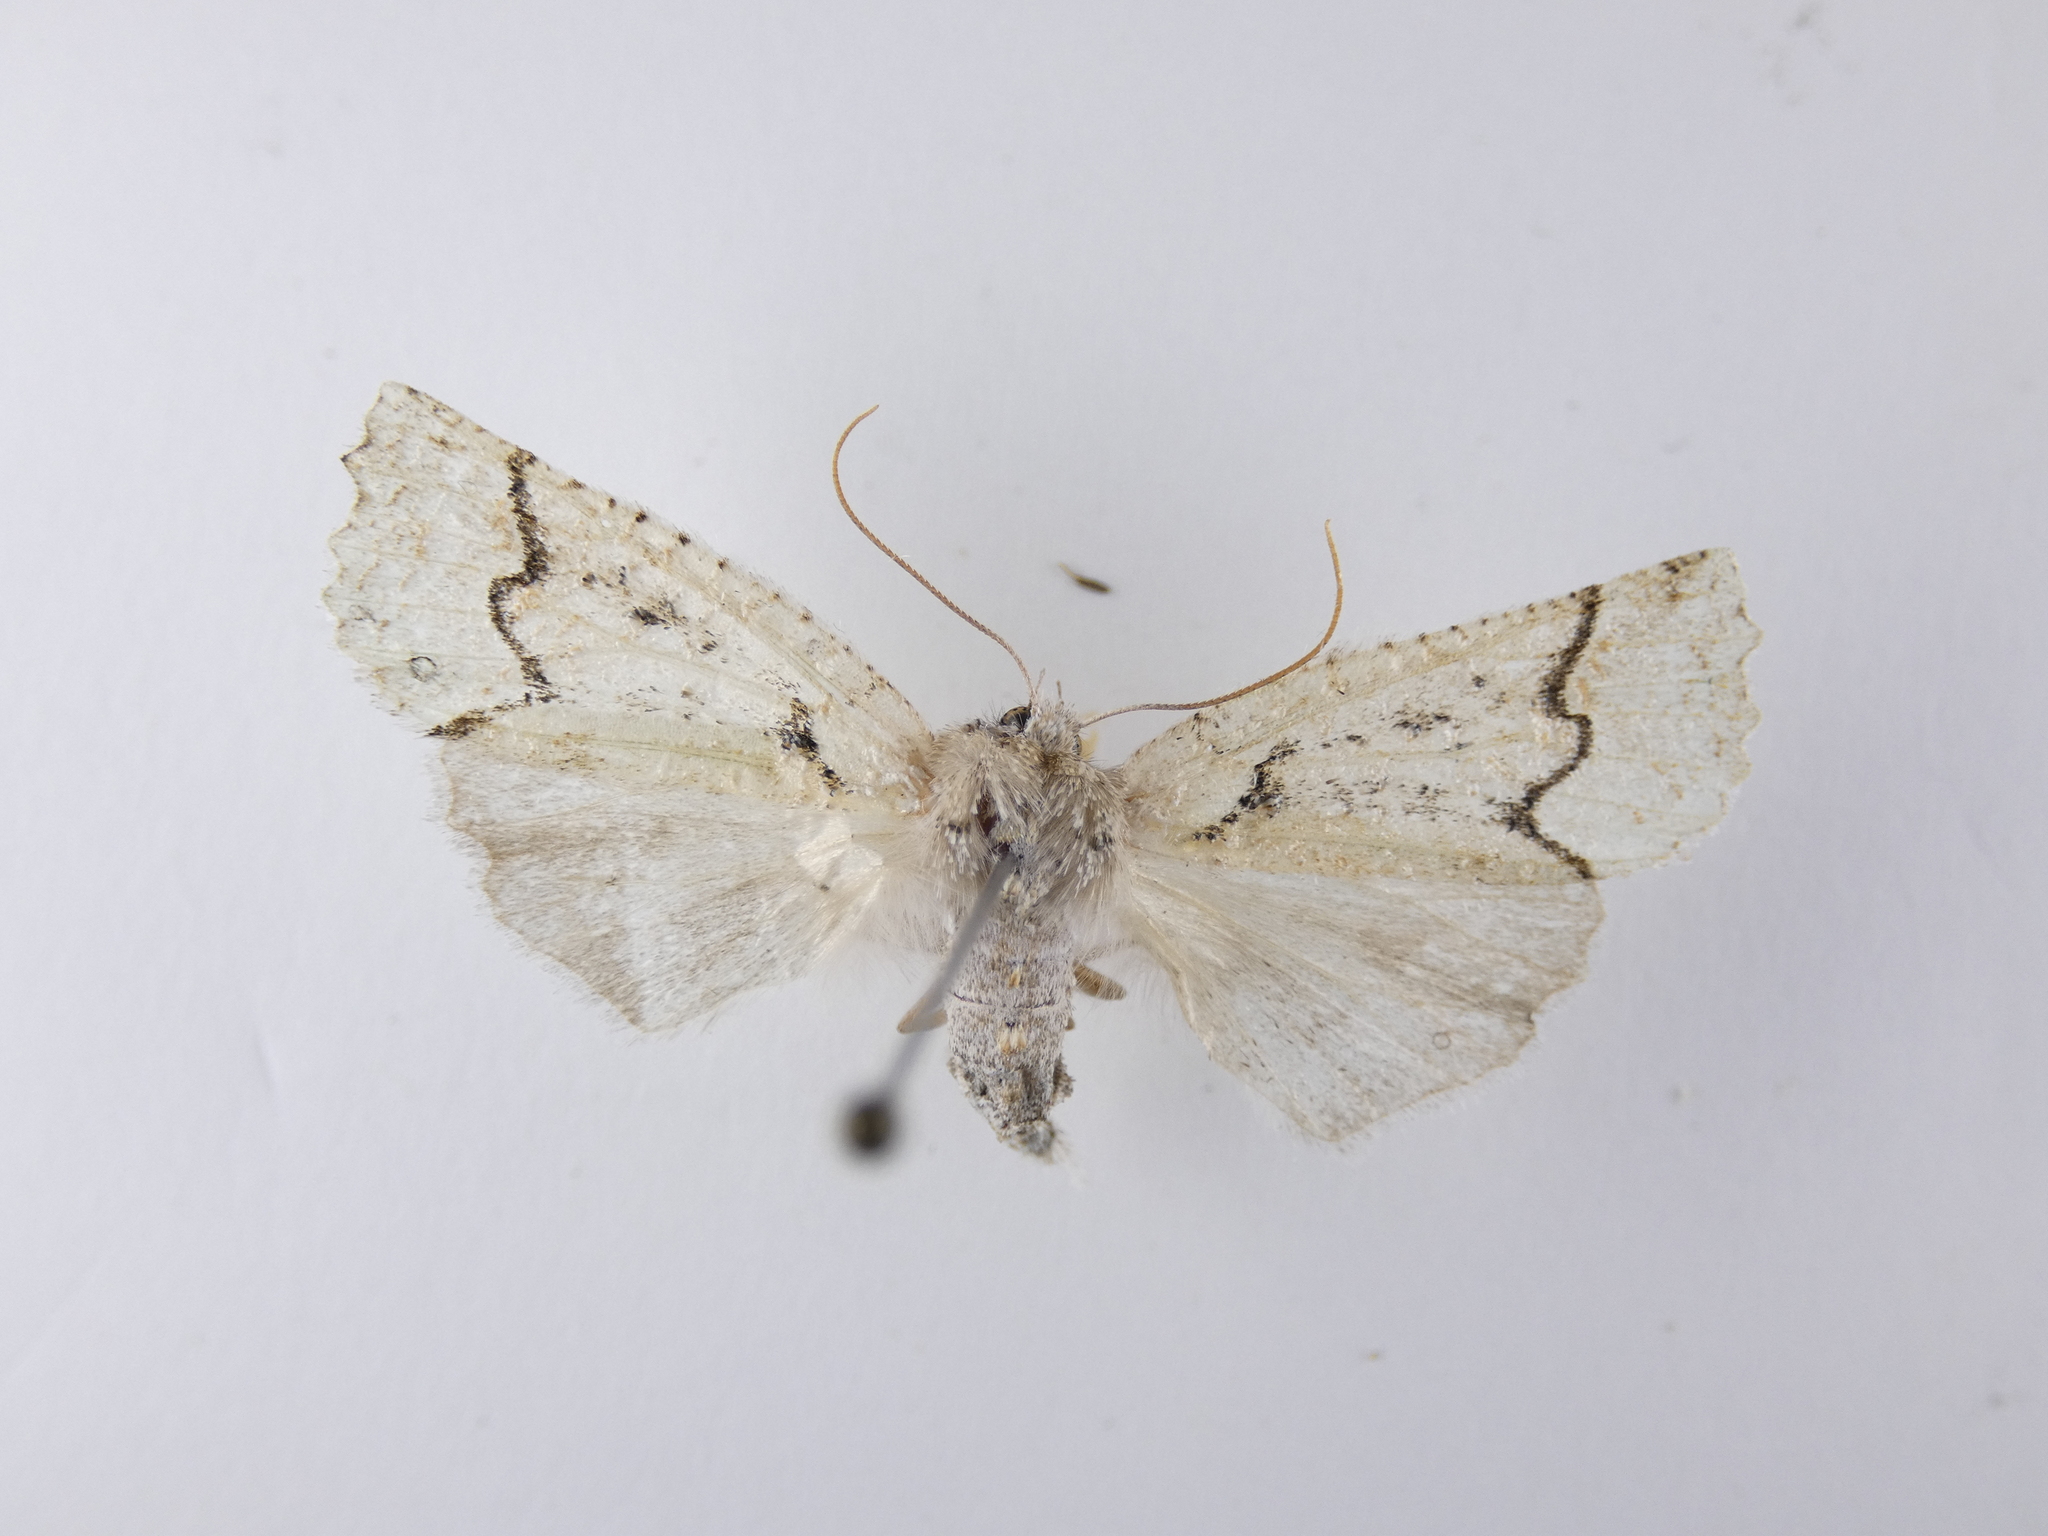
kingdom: Animalia
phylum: Arthropoda
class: Insecta
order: Lepidoptera
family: Geometridae
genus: Declana
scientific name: Declana floccosa
